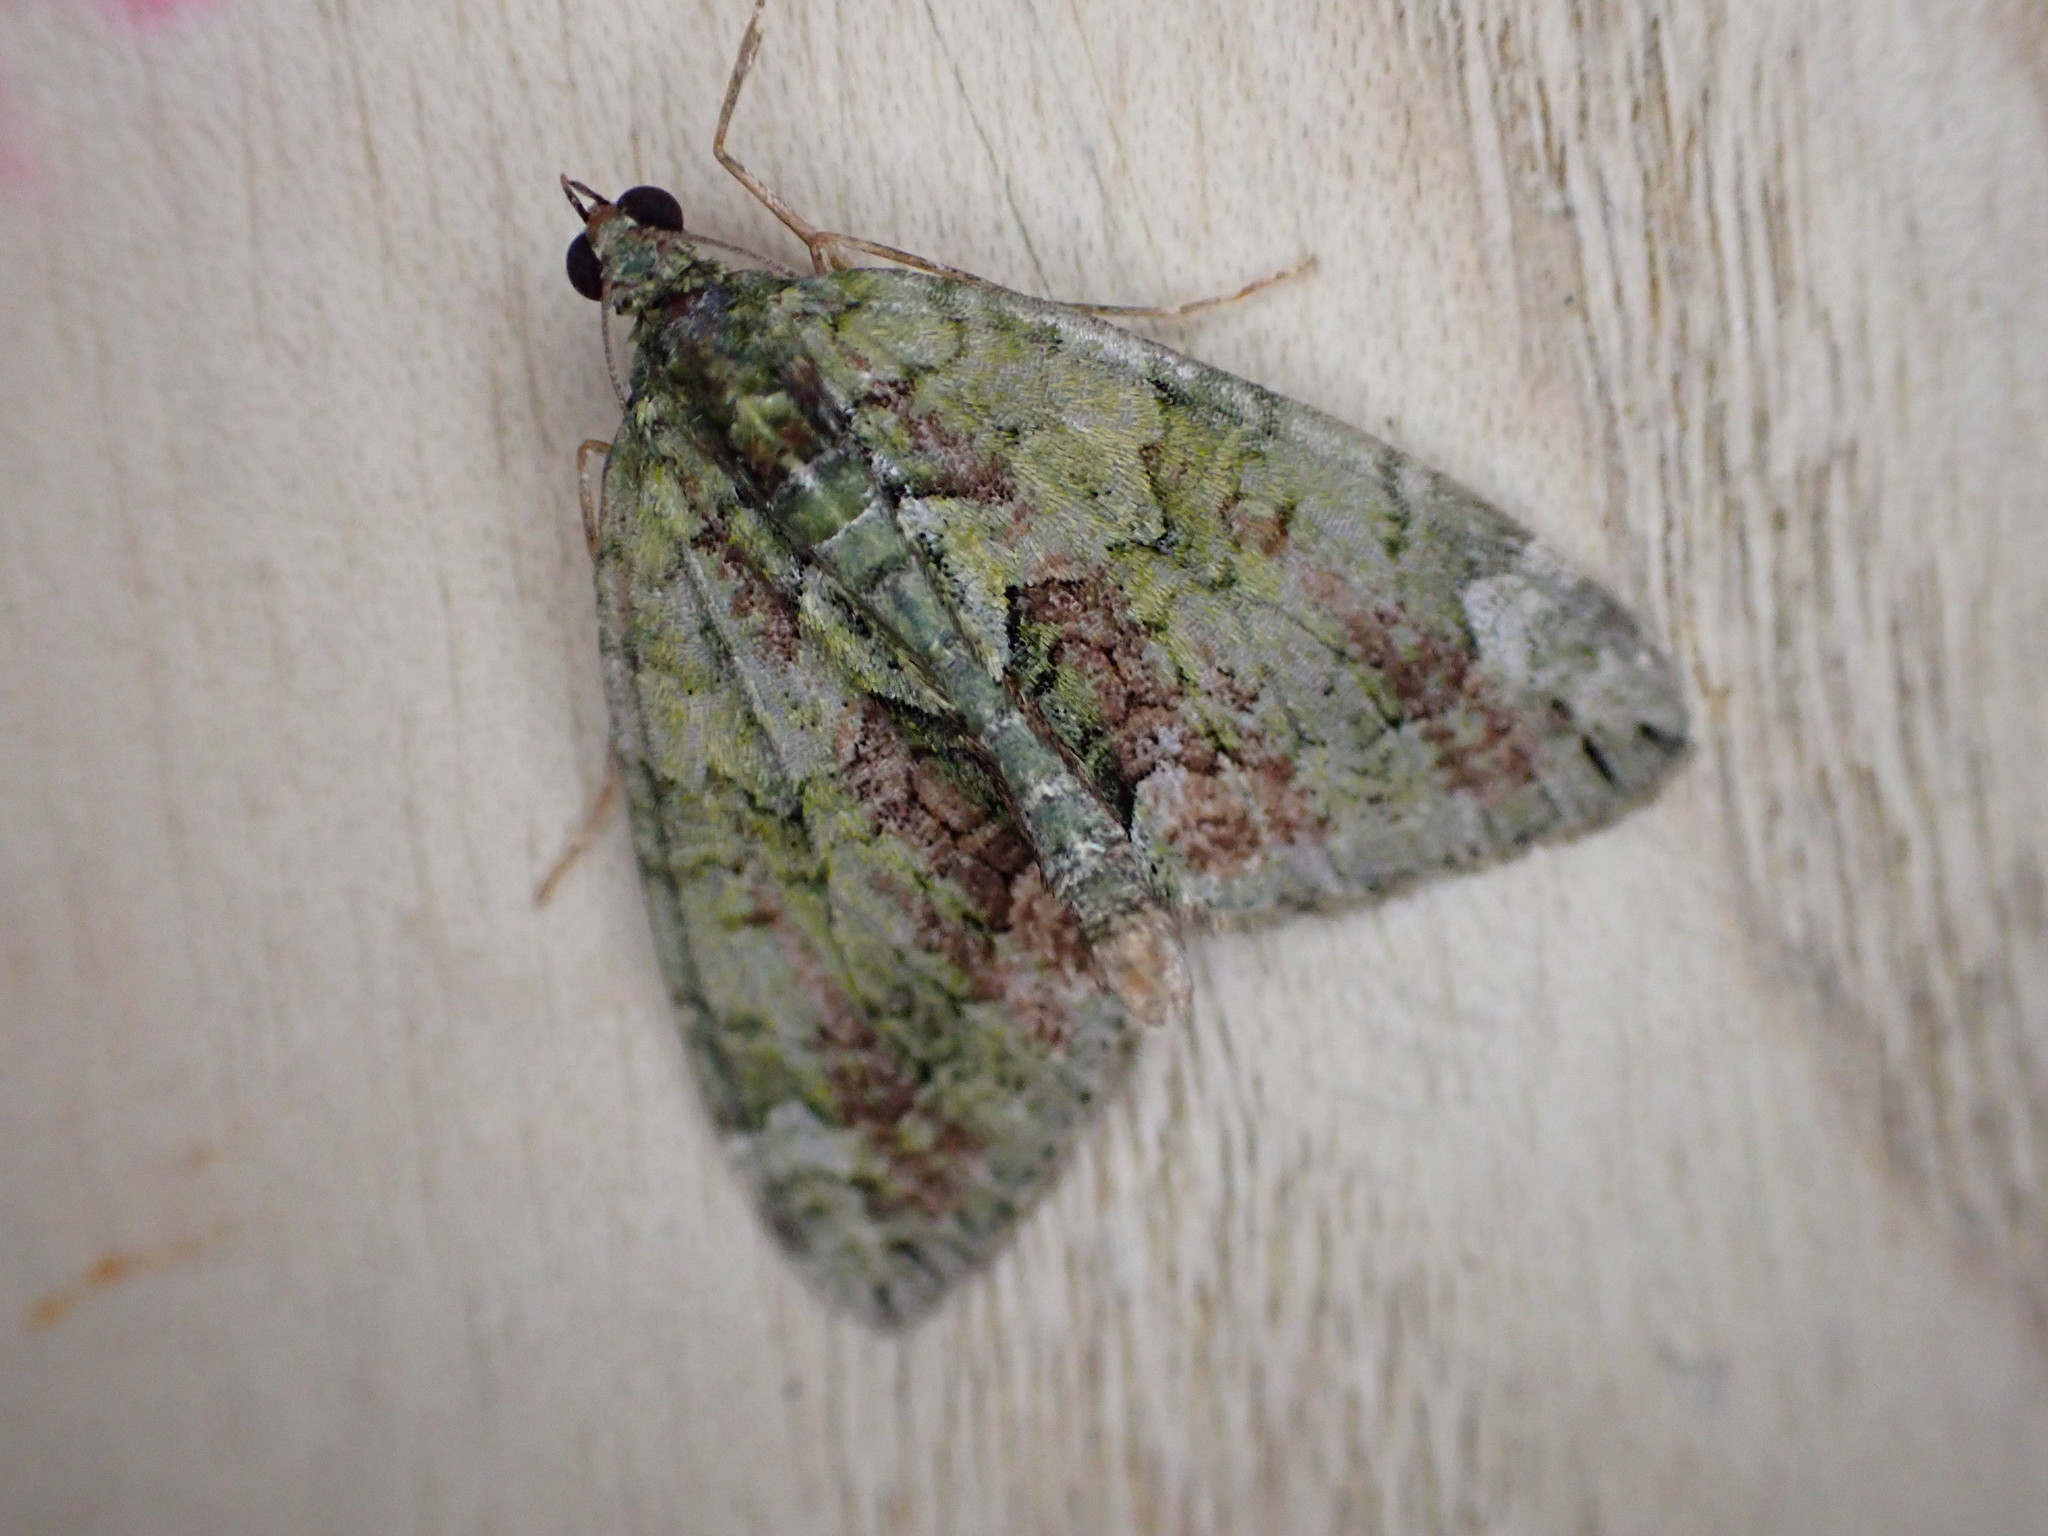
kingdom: Animalia
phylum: Arthropoda
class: Insecta
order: Lepidoptera
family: Geometridae
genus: Chloroclysta
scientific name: Chloroclysta siterata
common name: Red-green carpet
